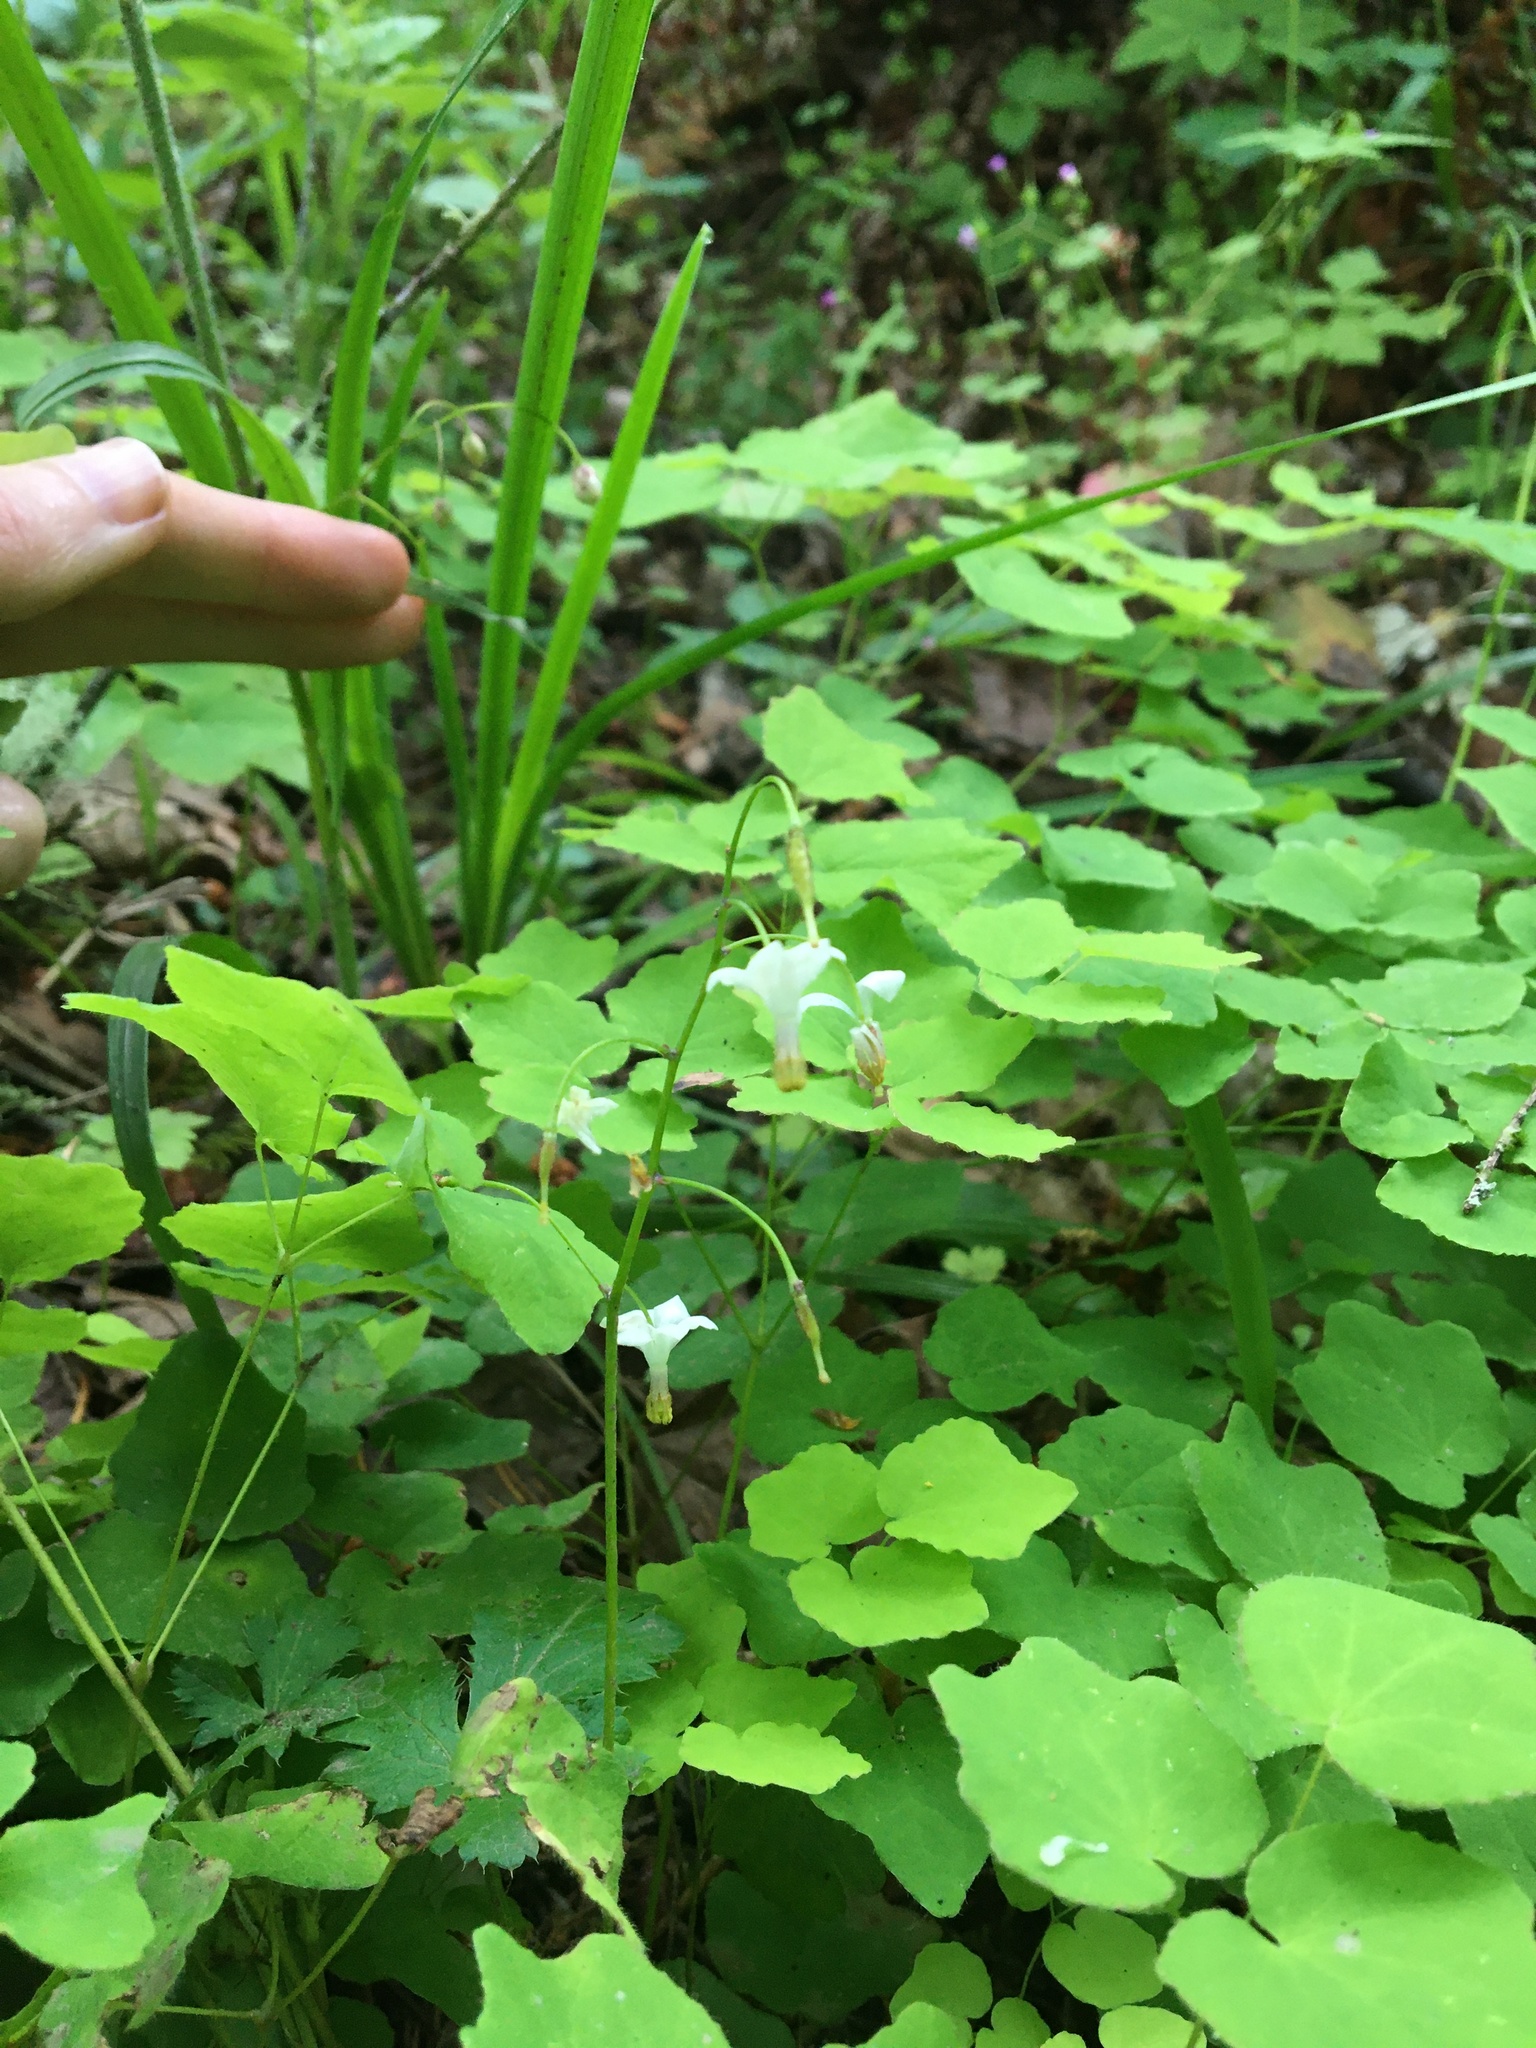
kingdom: Plantae
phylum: Tracheophyta
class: Magnoliopsida
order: Ranunculales
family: Berberidaceae
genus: Vancouveria
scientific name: Vancouveria hexandra
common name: Northern inside-out-flower
